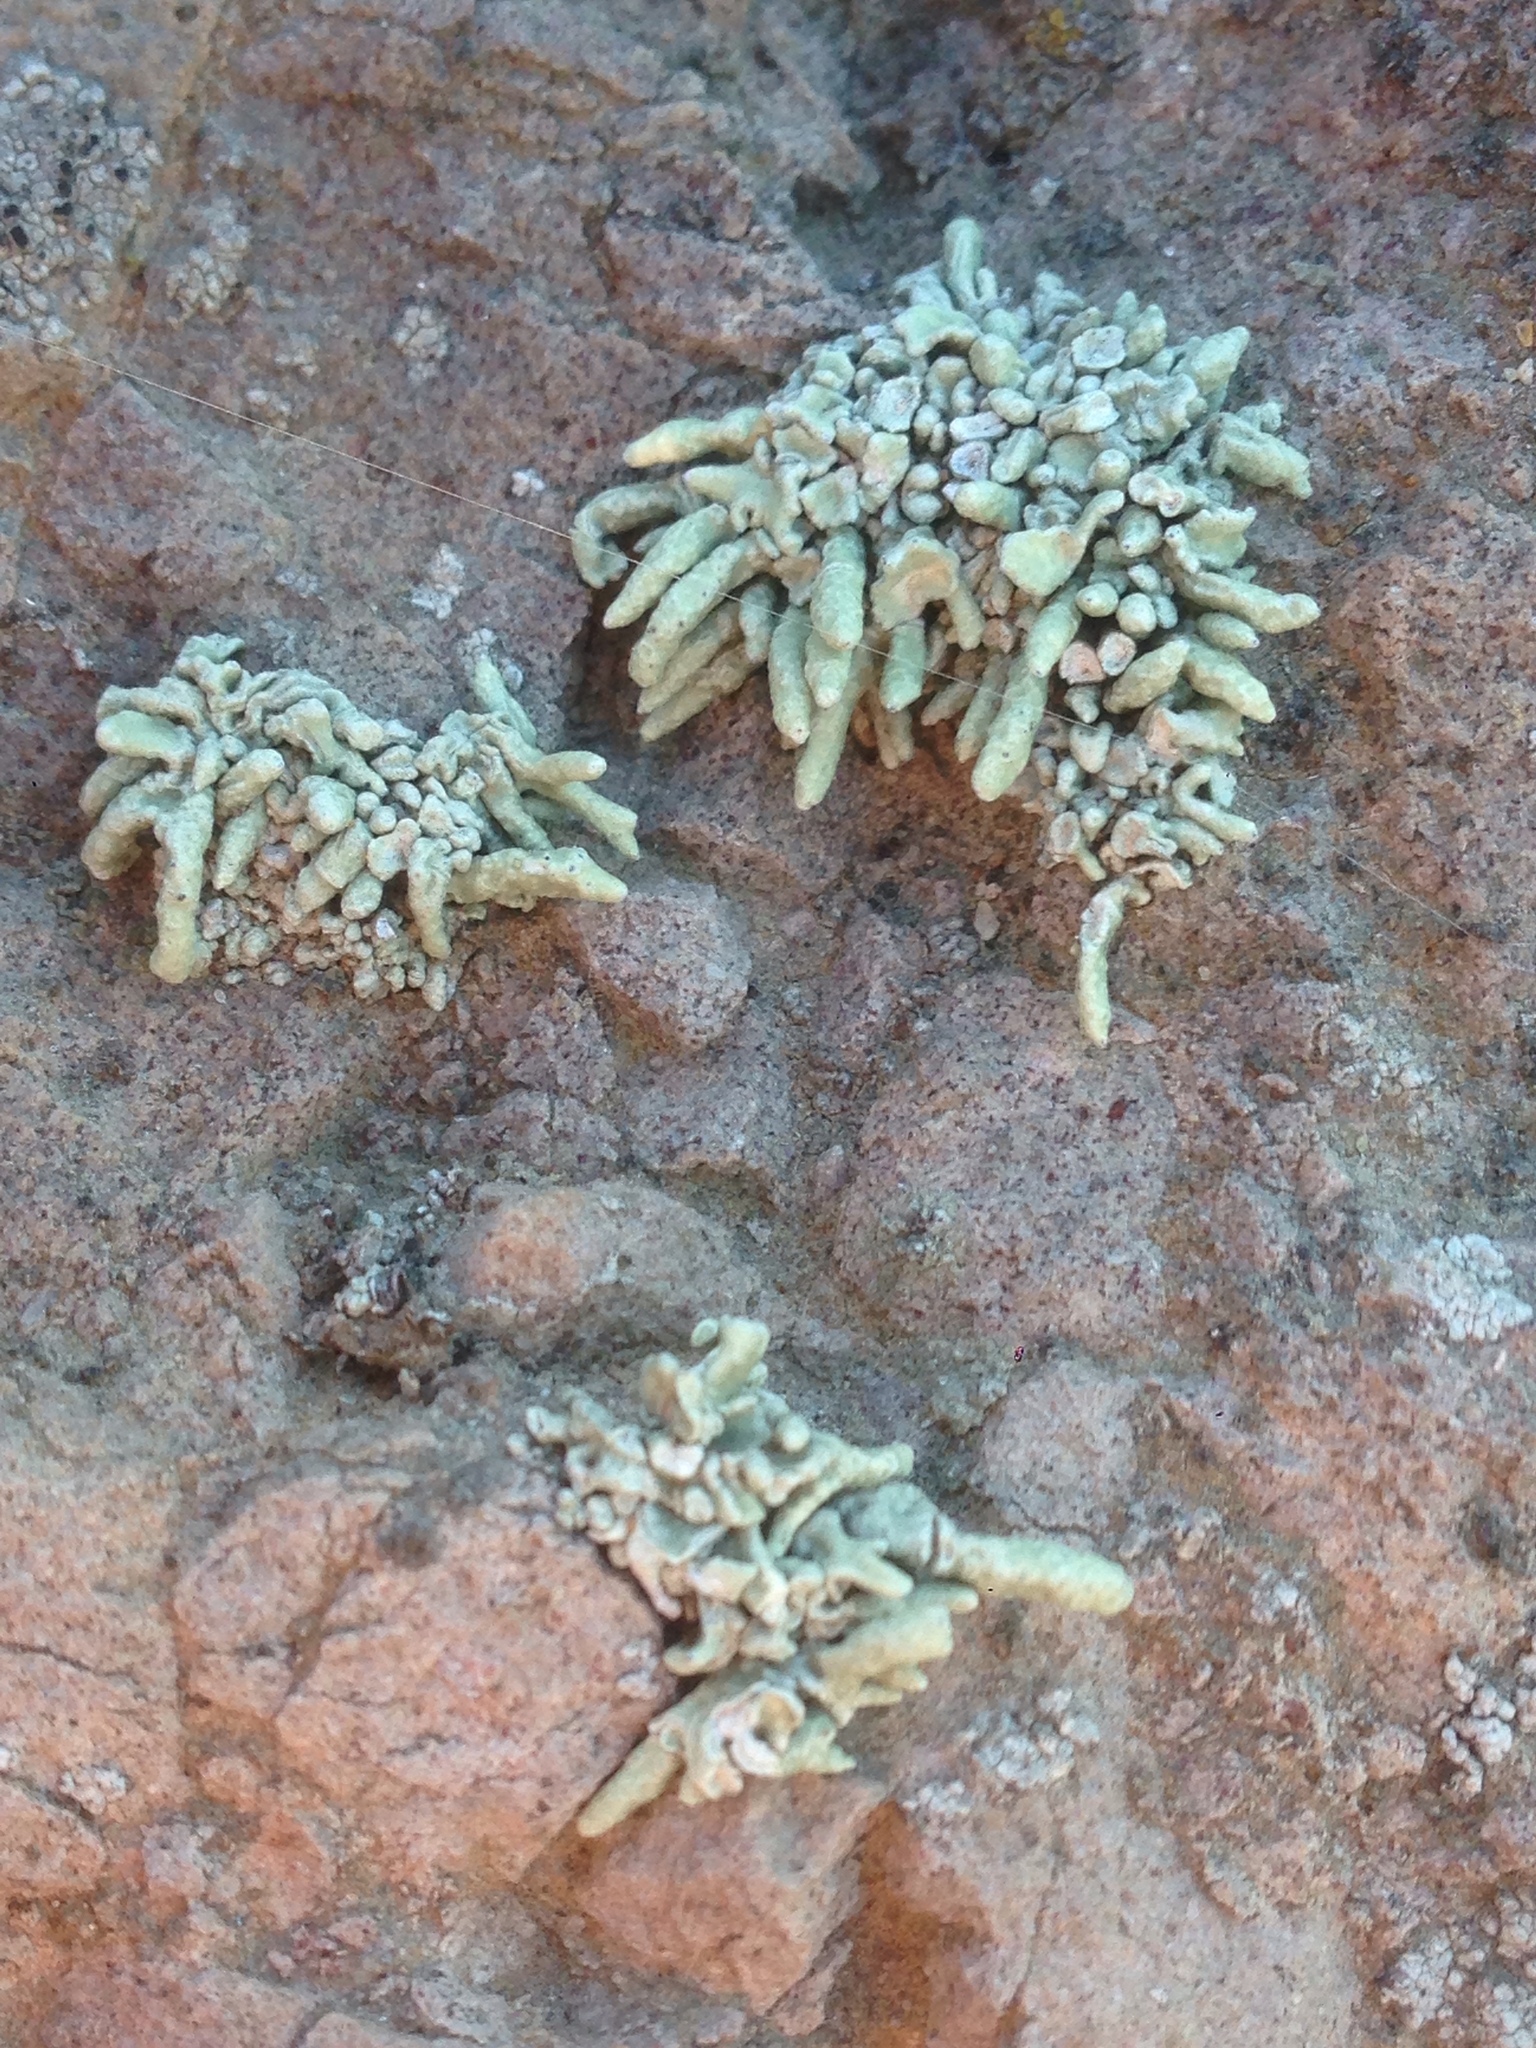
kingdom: Fungi
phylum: Ascomycota
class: Lecanoromycetes
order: Lecanorales
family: Ramalinaceae
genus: Niebla
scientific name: Niebla combeoides
